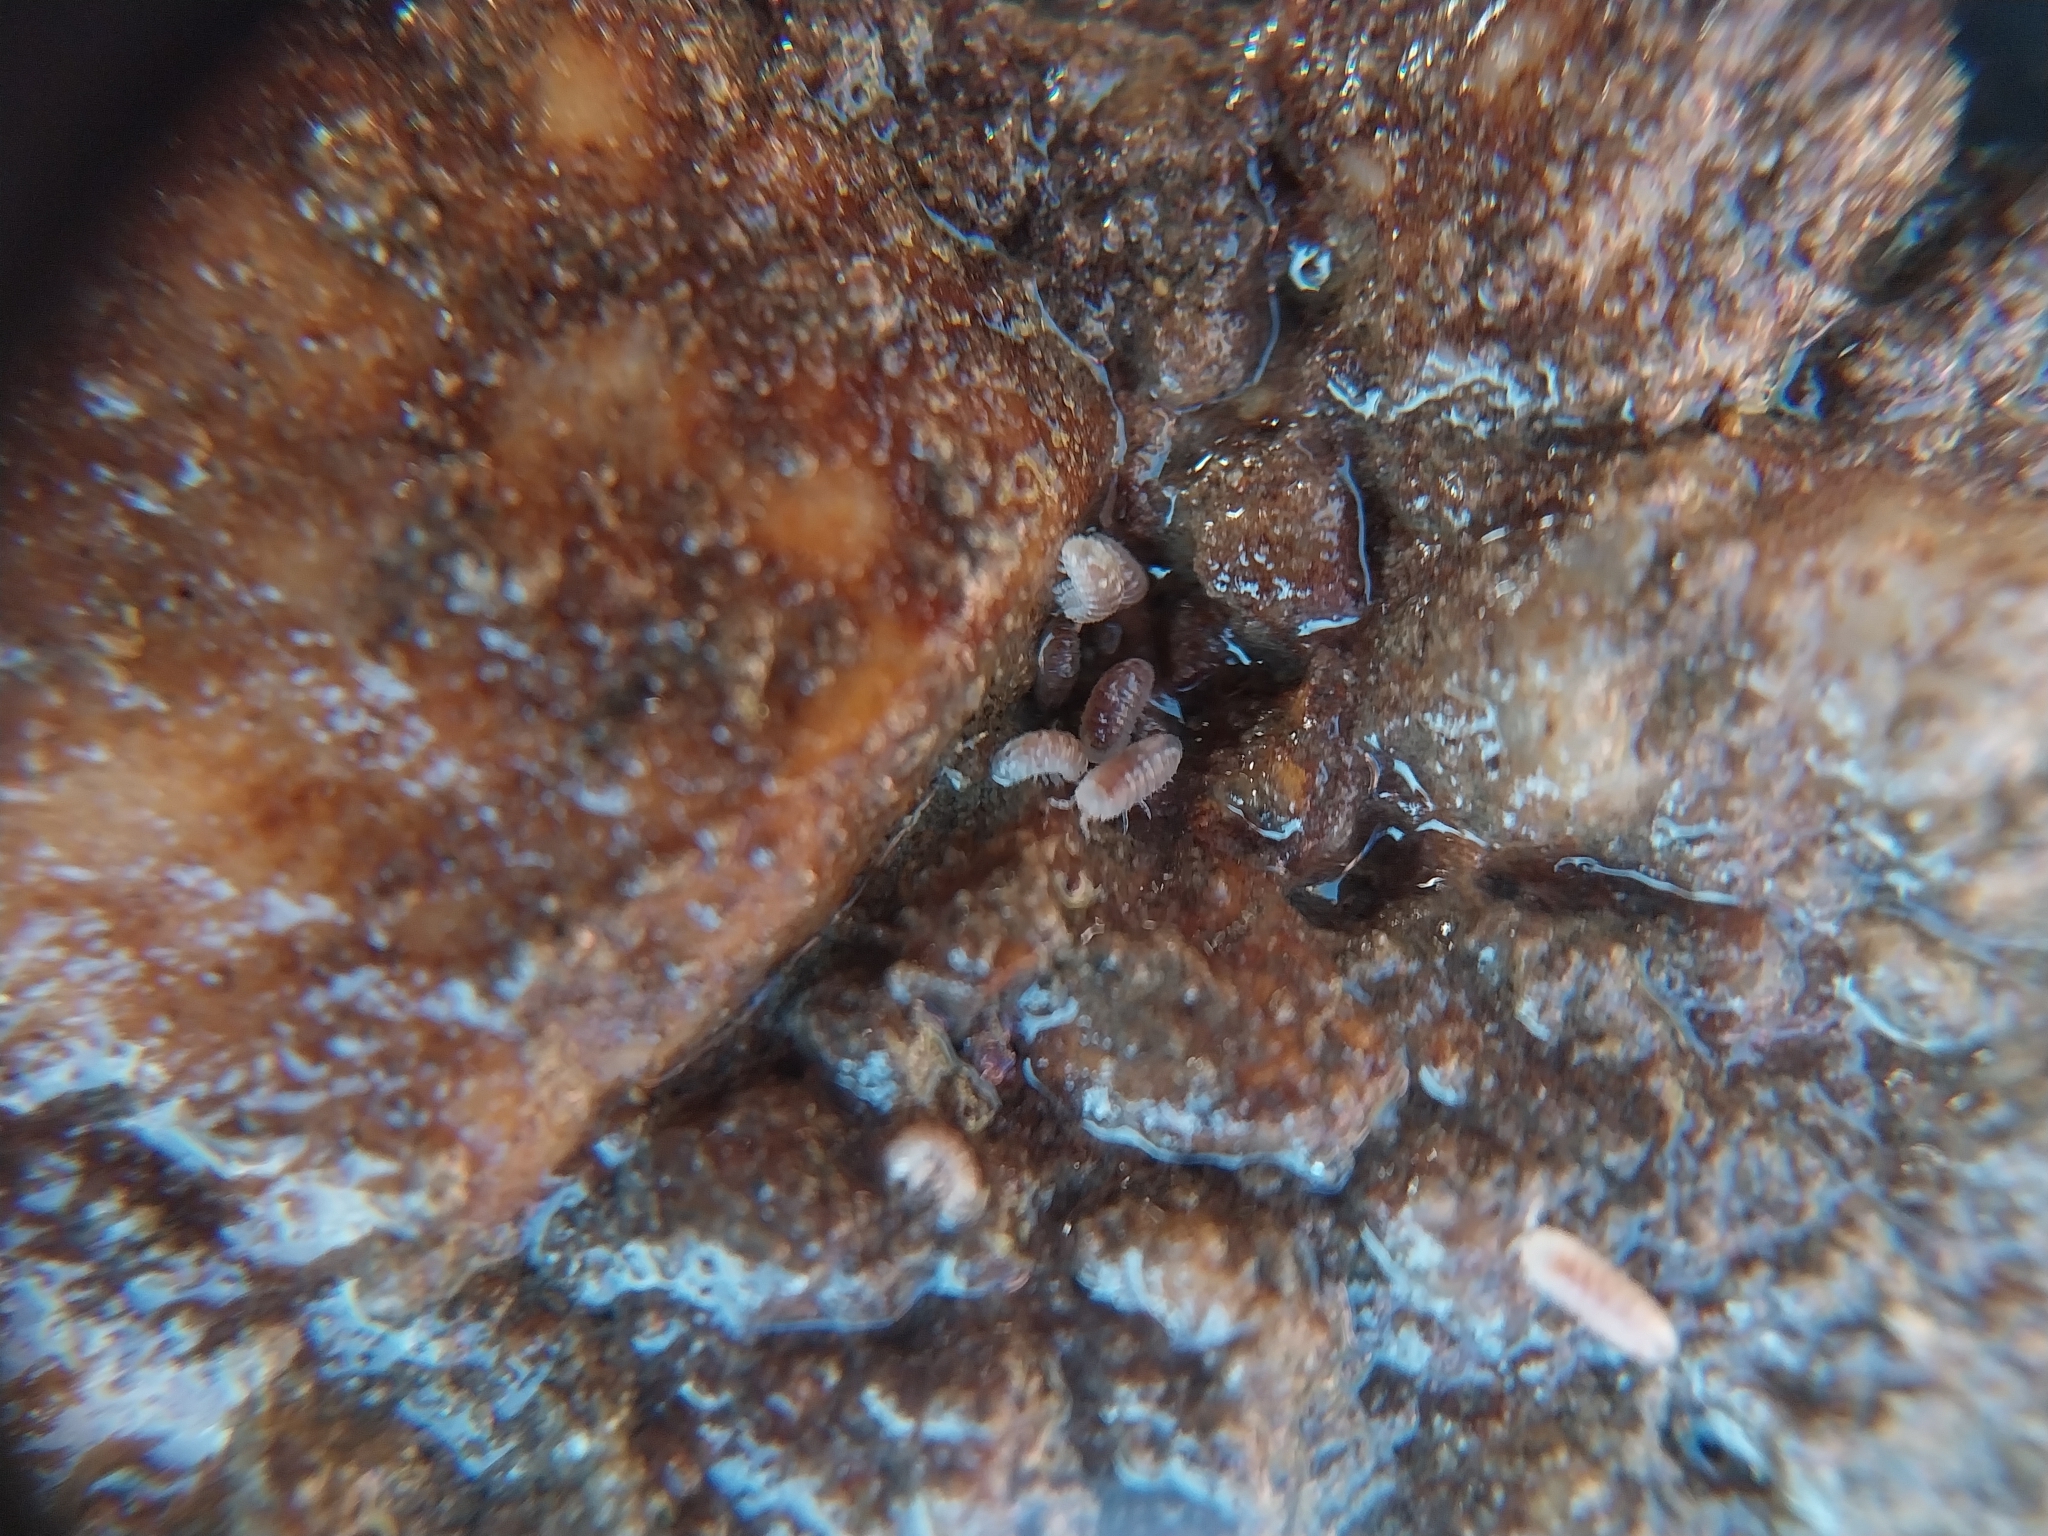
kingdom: Animalia
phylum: Arthropoda
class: Malacostraca
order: Isopoda
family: Trichoniscidae
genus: Buchnerillo
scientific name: Buchnerillo atlanticus
